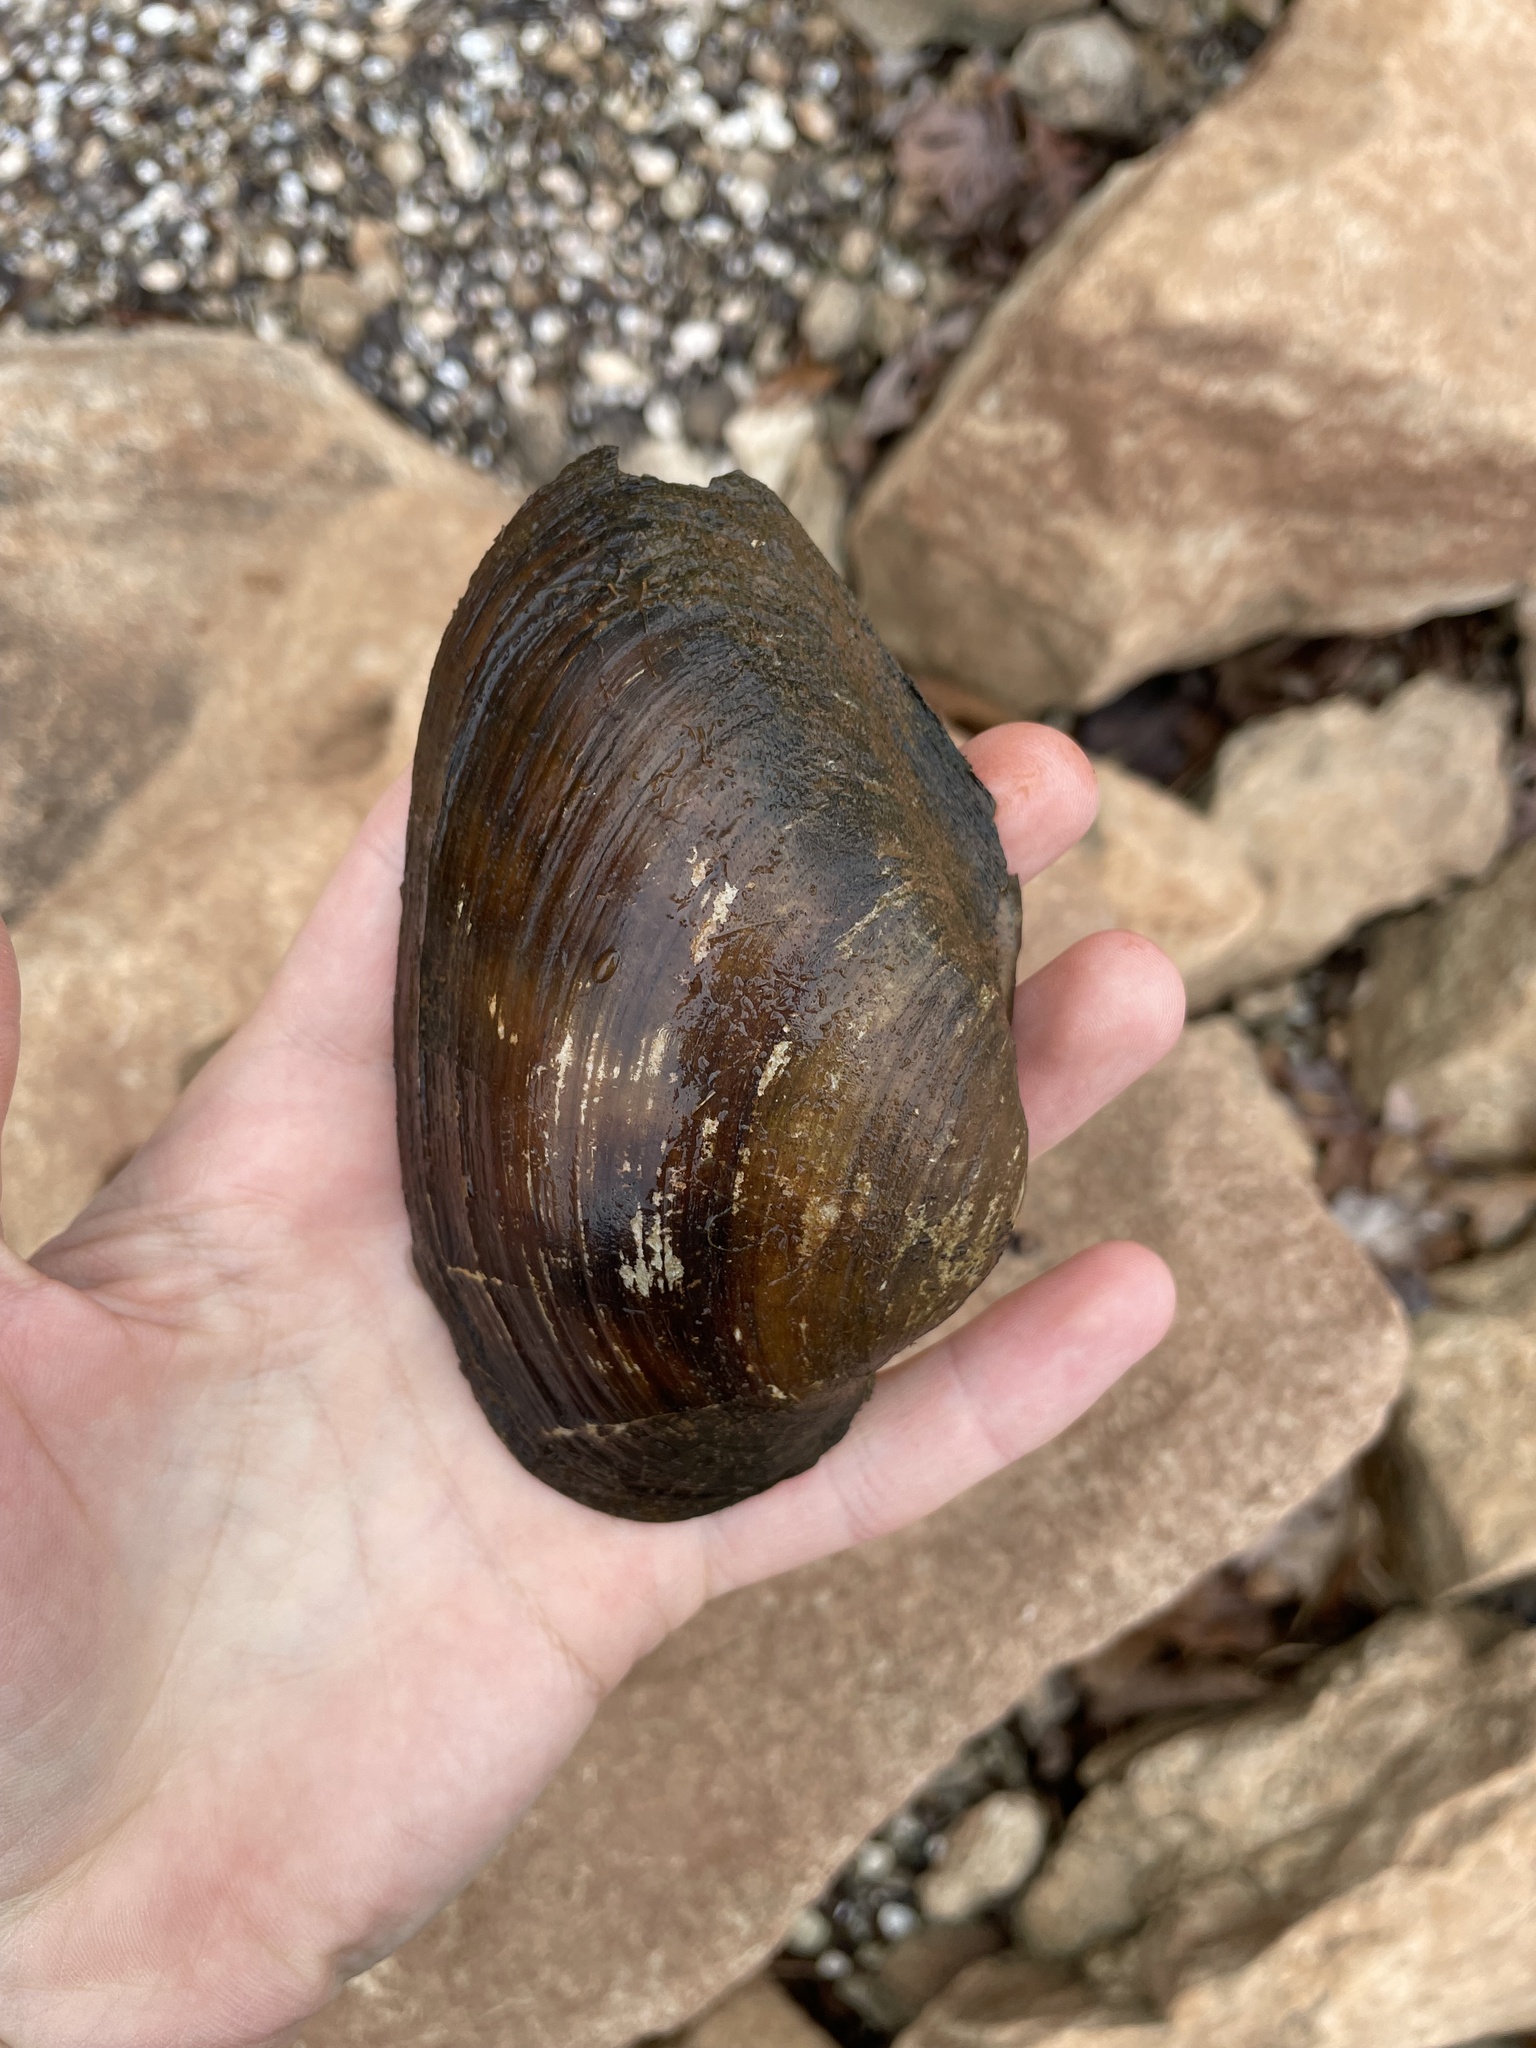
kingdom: Animalia
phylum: Mollusca
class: Bivalvia
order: Unionida
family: Unionidae
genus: Pyganodon
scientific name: Pyganodon grandis
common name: Giant floater
